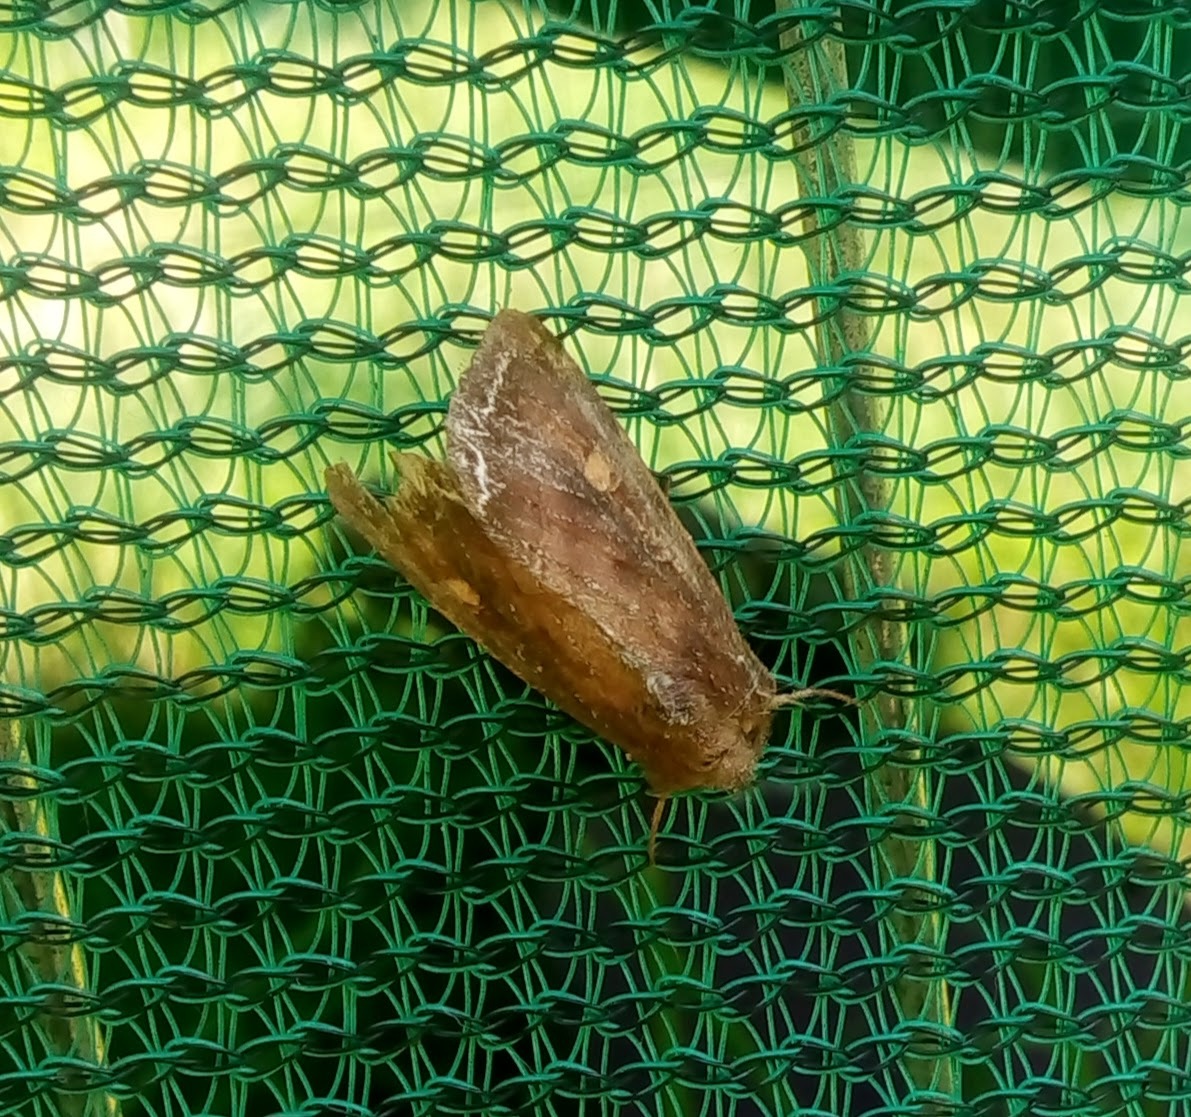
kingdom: Animalia
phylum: Arthropoda
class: Insecta
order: Lepidoptera
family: Noctuidae
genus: Lacanobia
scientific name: Lacanobia oleracea
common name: Bright-line brown-eye
